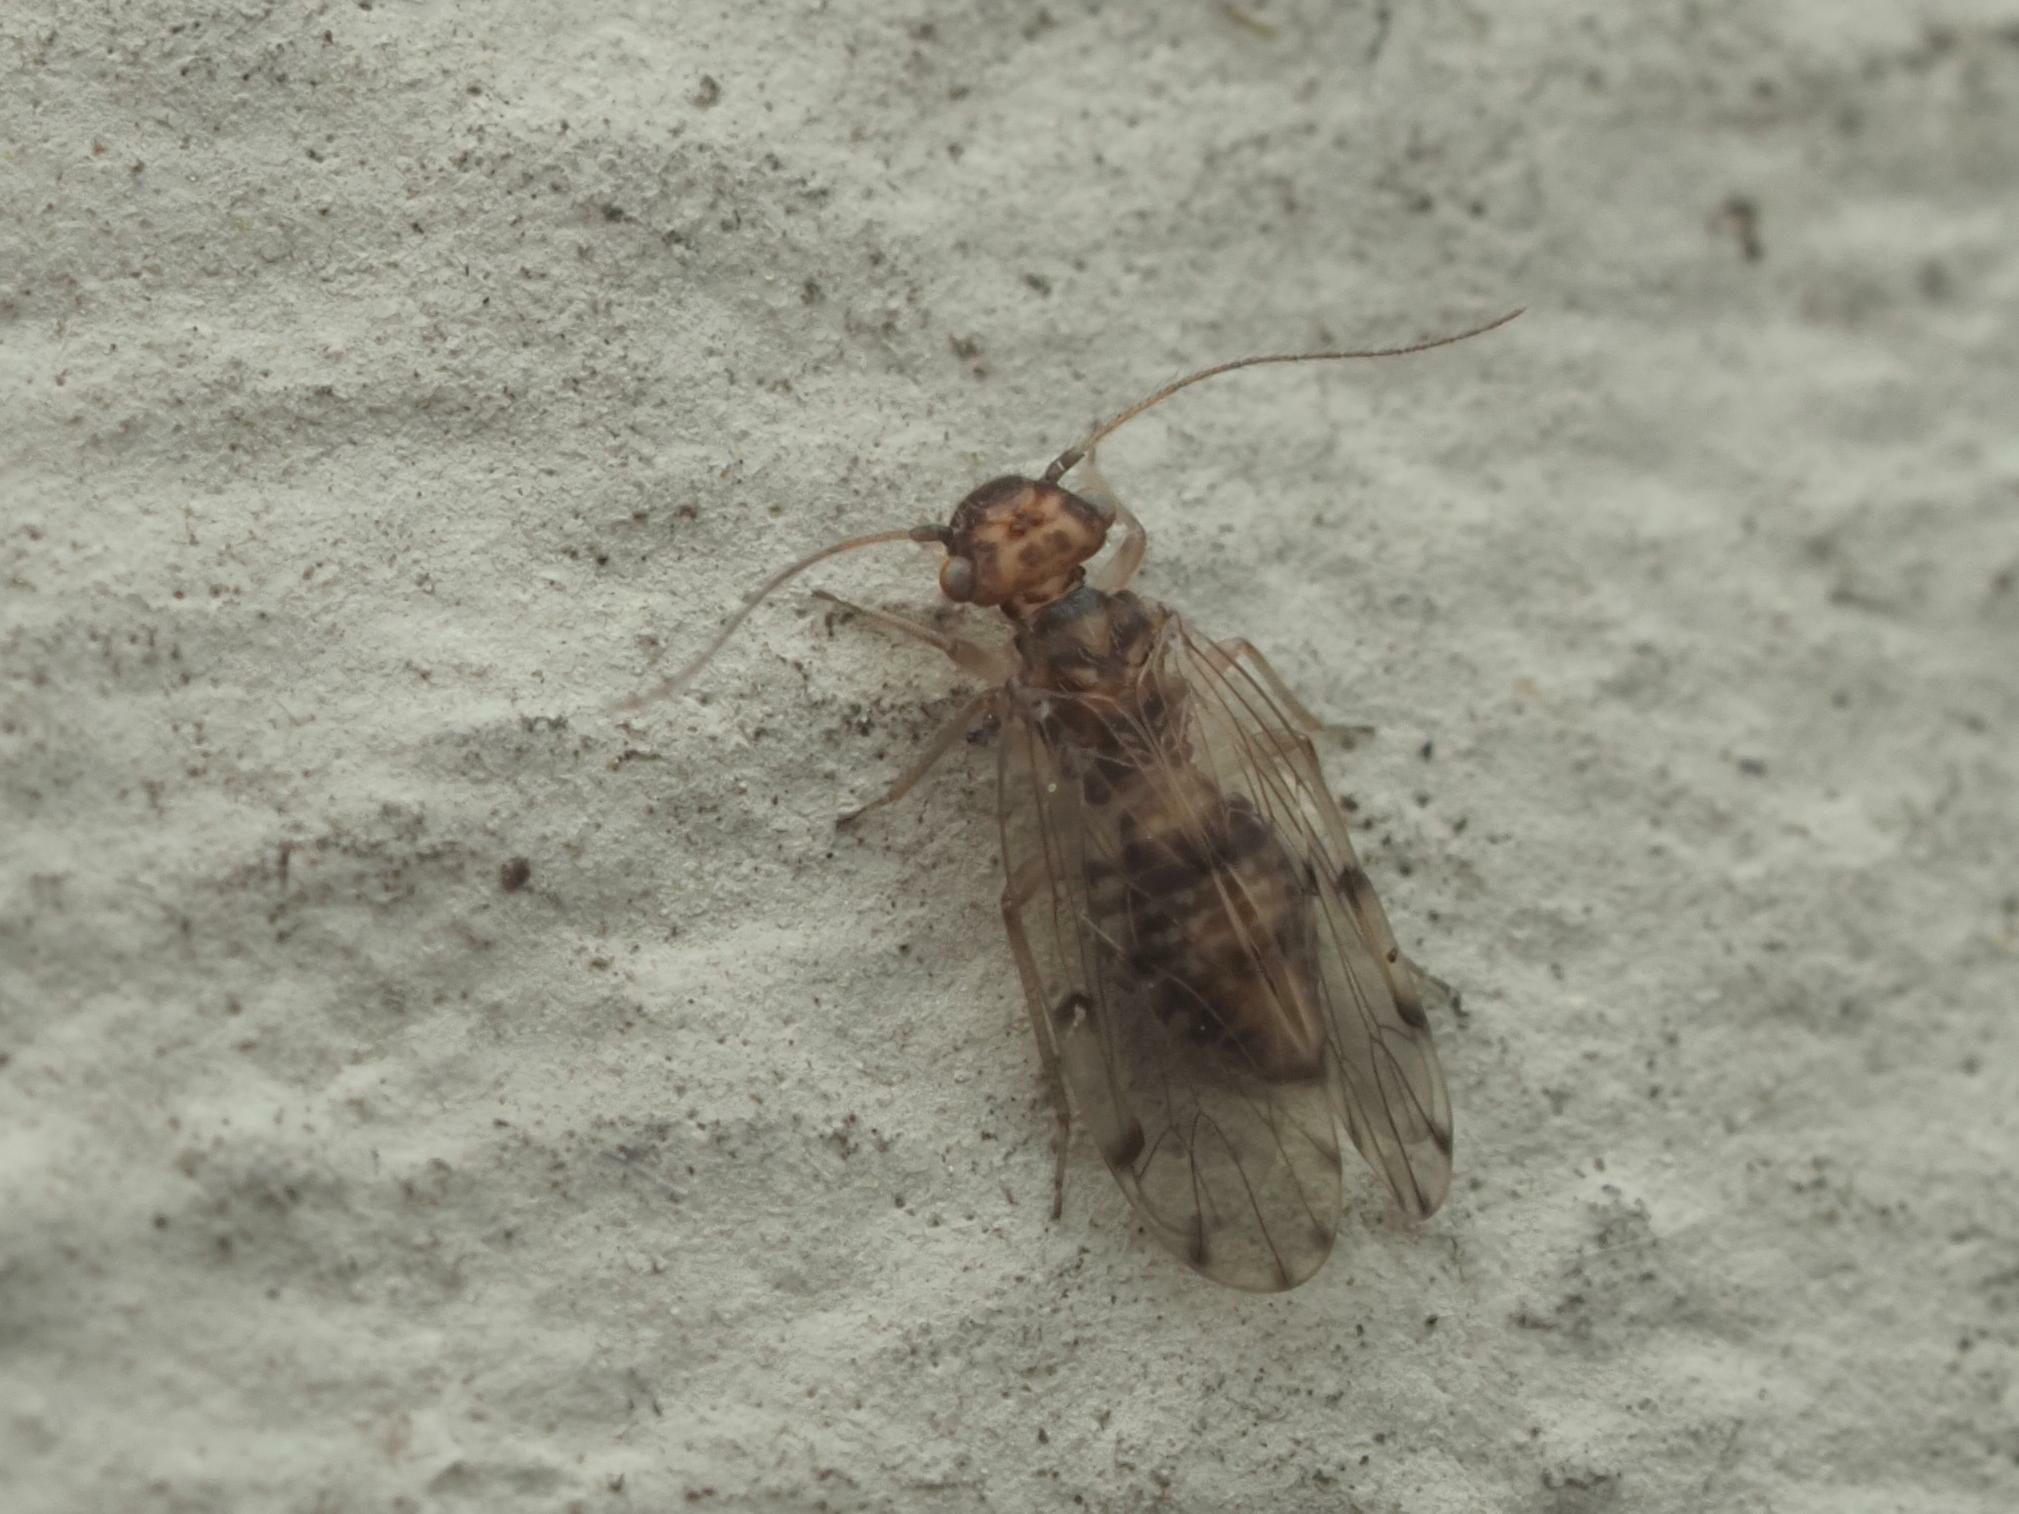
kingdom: Animalia
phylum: Arthropoda
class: Insecta
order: Psocodea
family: Ectopsocidae
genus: Ectopsocus
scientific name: Ectopsocus petersi
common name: Medium-sized bark louse
